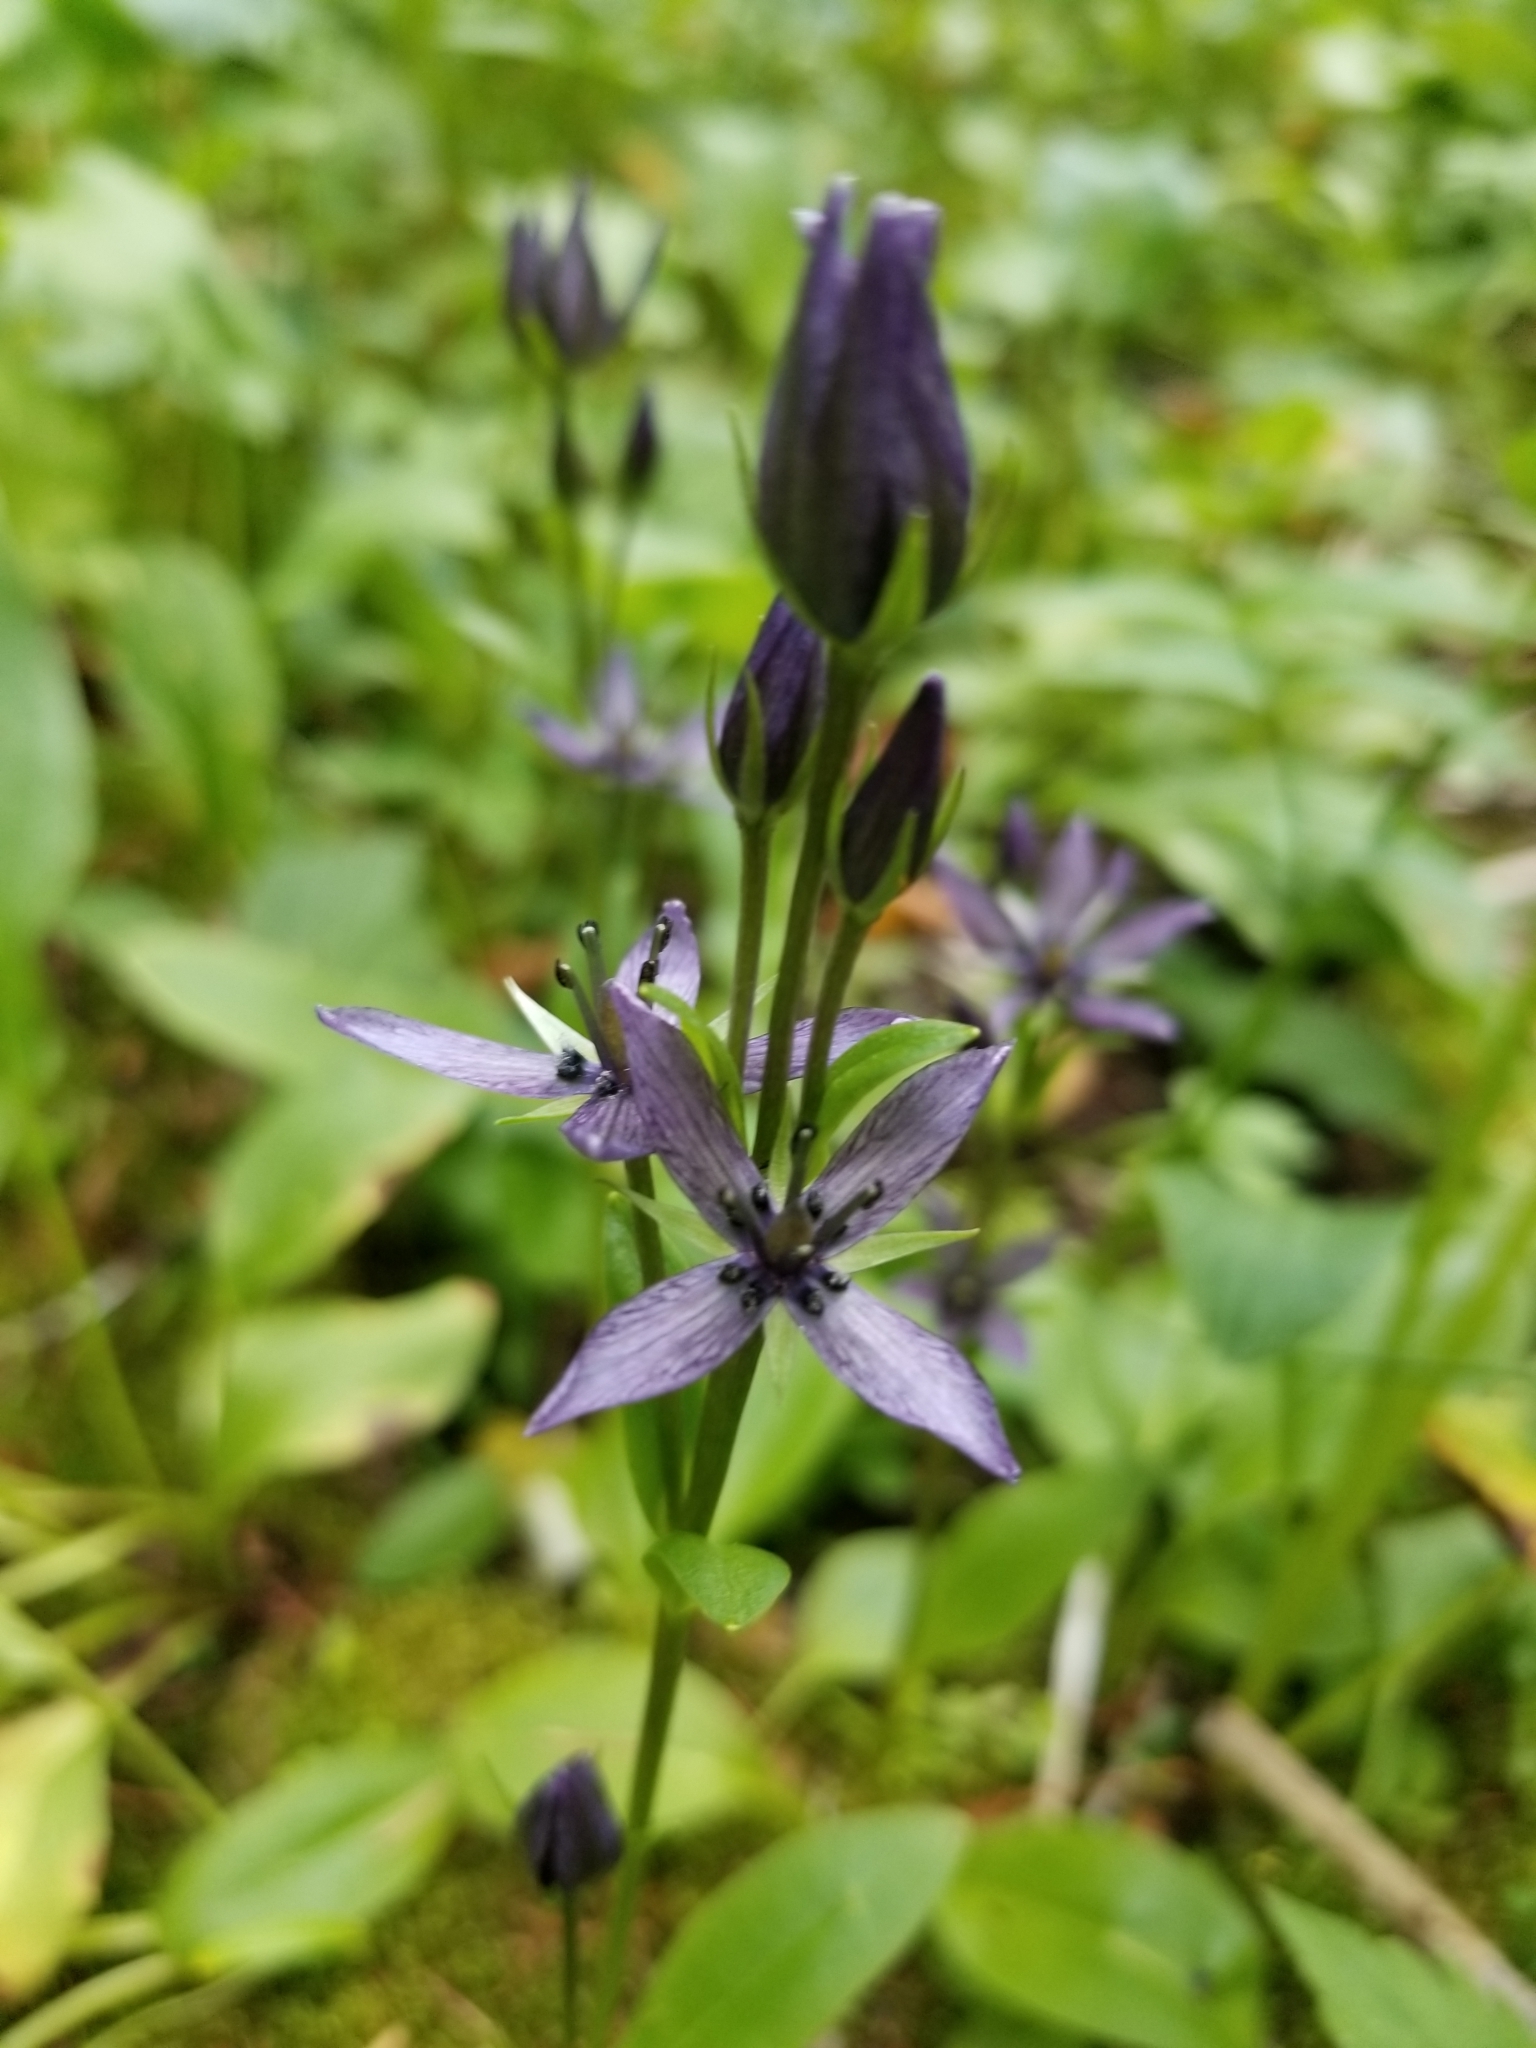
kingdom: Plantae
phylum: Tracheophyta
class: Magnoliopsida
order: Gentianales
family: Gentianaceae
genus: Swertia
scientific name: Swertia perennis
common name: Alpine bog swertia
